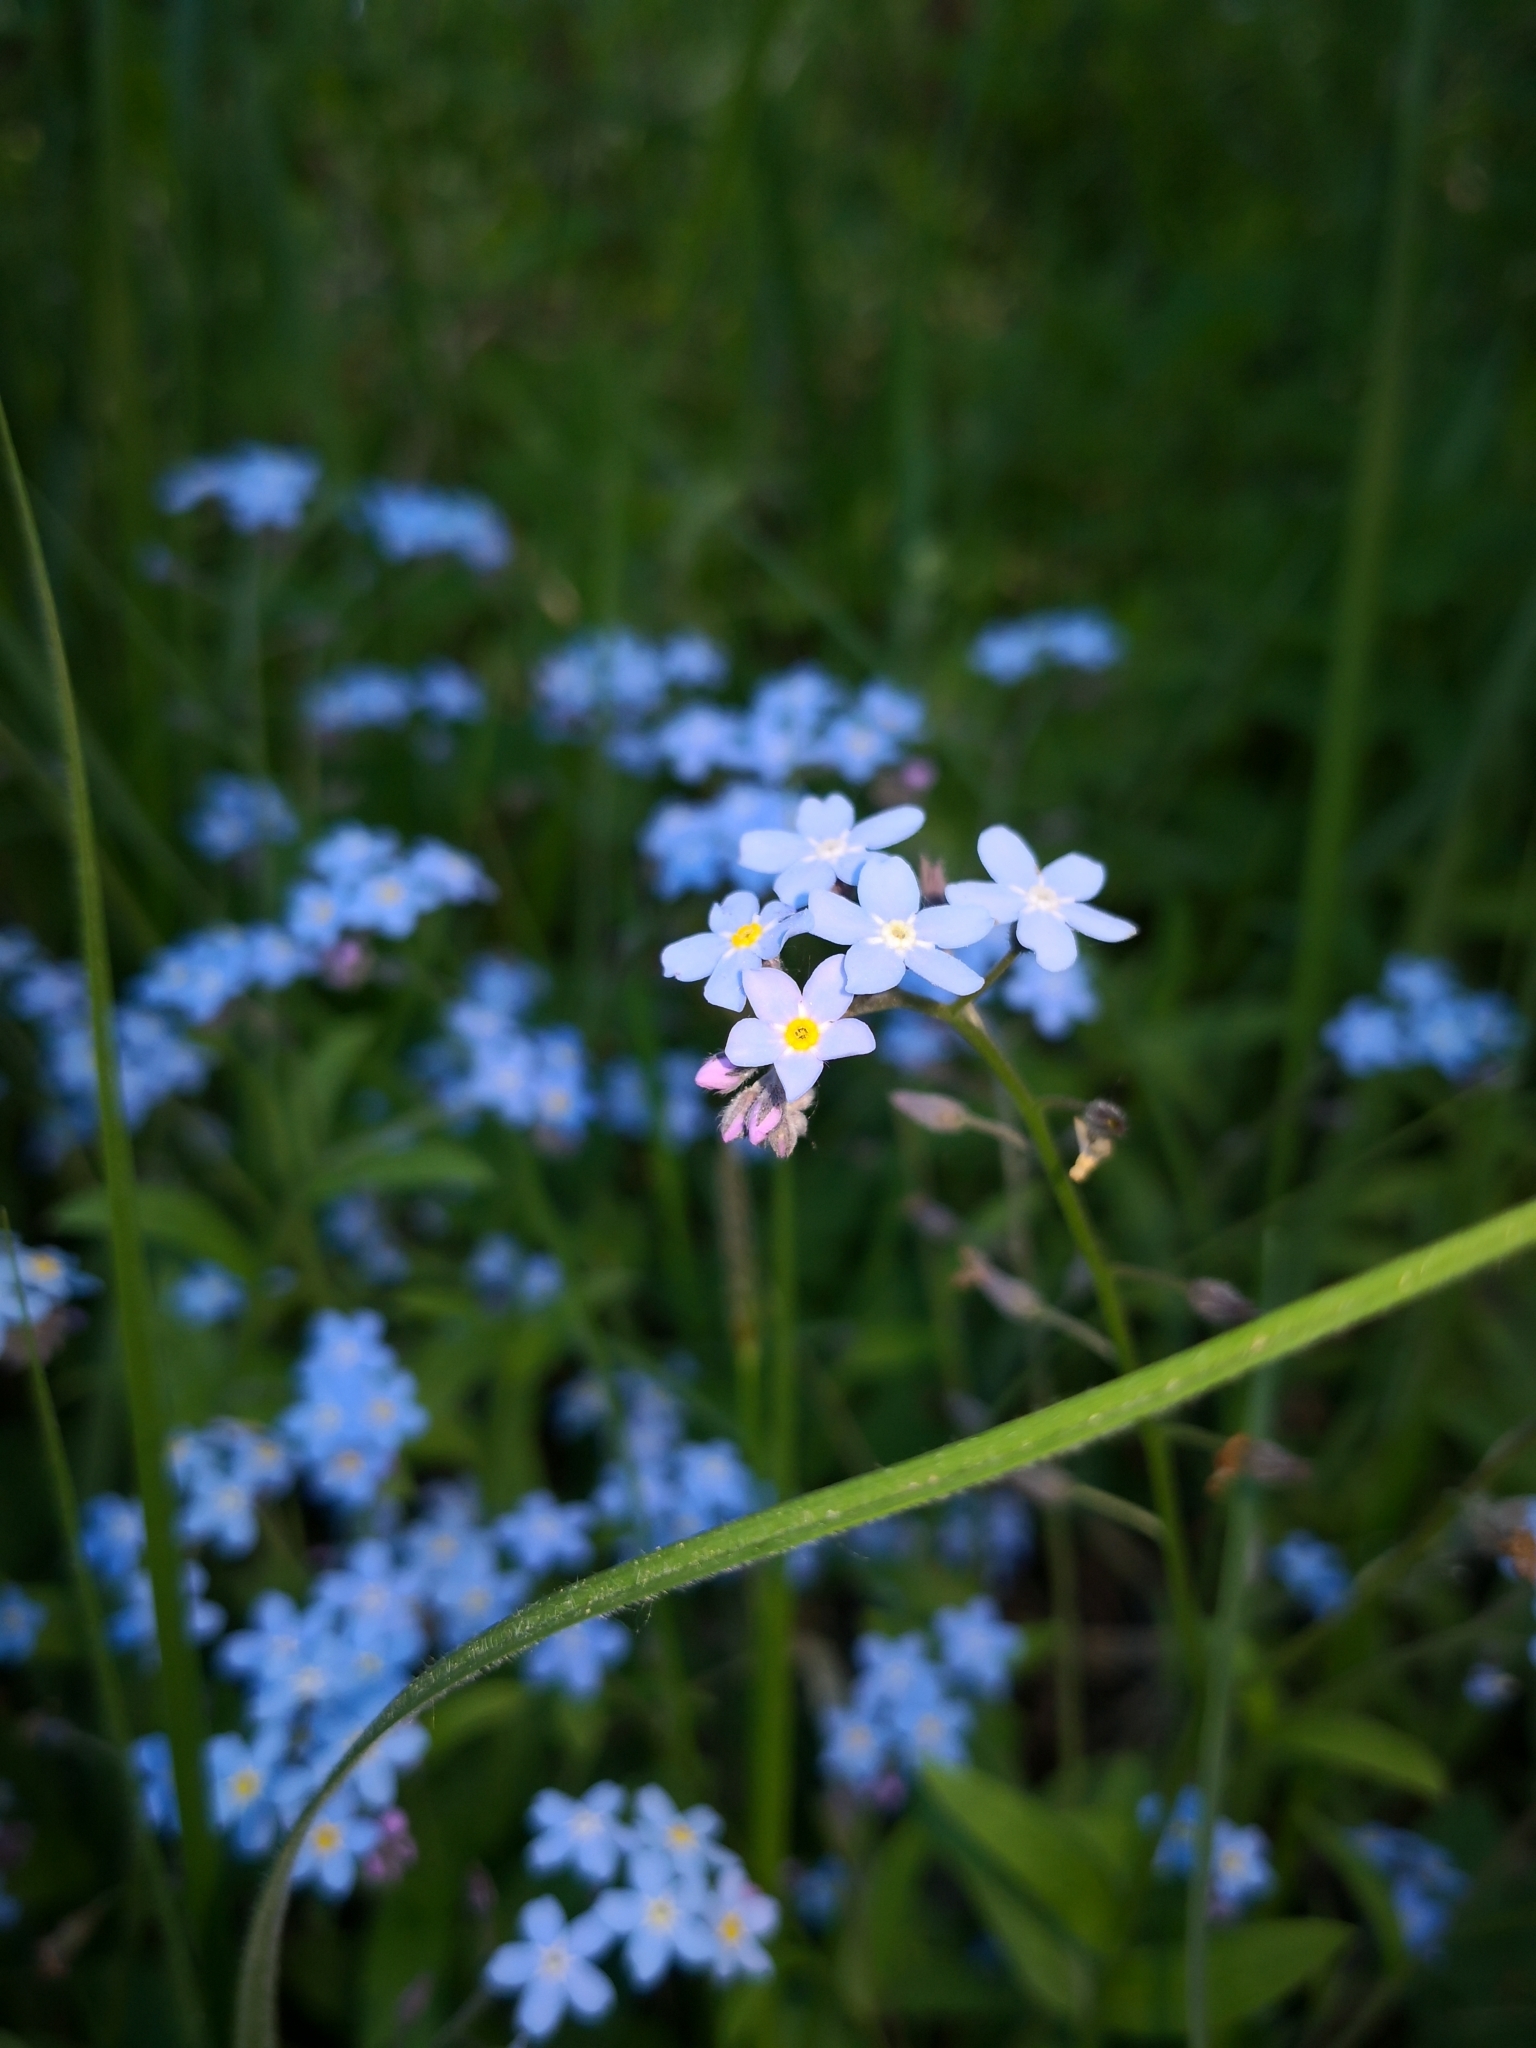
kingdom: Plantae
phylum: Tracheophyta
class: Magnoliopsida
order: Boraginales
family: Boraginaceae
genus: Myosotis
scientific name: Myosotis sylvatica
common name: Wood forget-me-not
